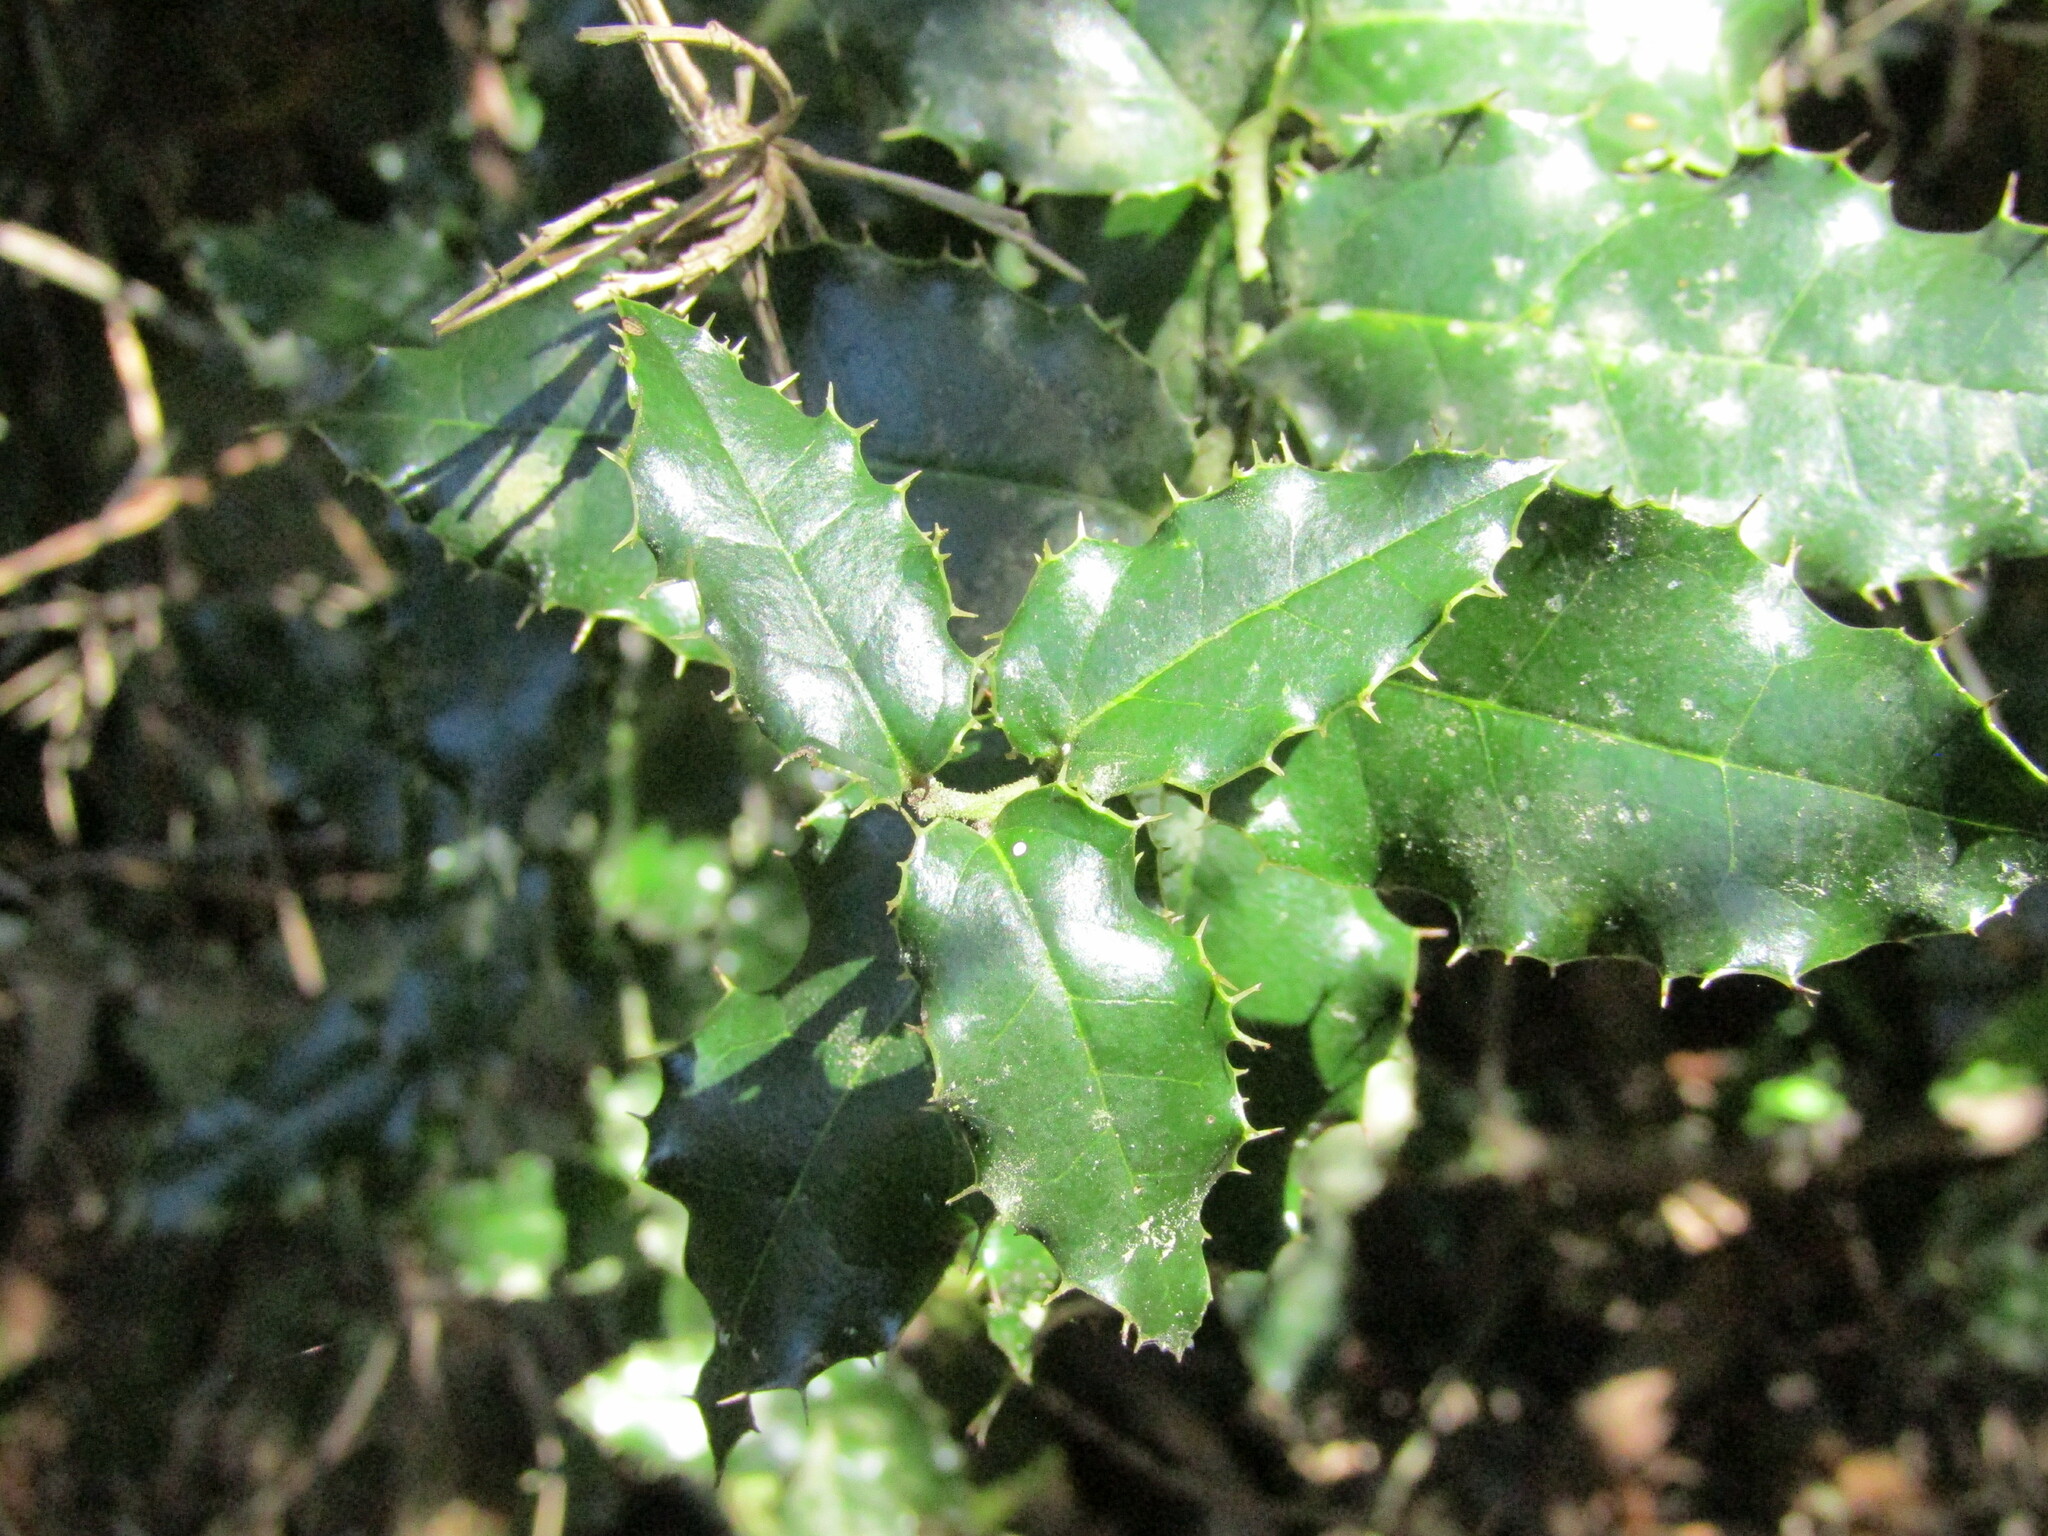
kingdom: Plantae
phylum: Tracheophyta
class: Magnoliopsida
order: Cardiopteridales
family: Cardiopteridaceae
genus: Citronella
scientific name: Citronella mucronata
